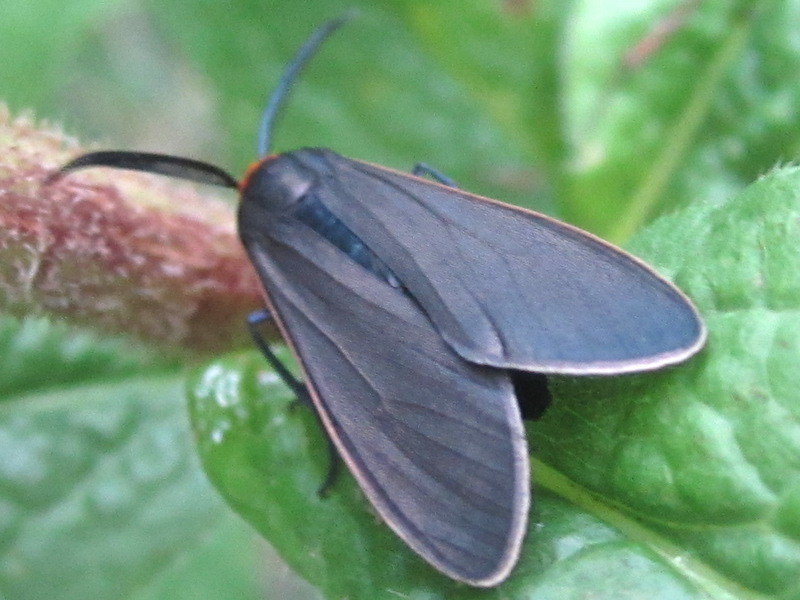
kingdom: Animalia
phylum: Arthropoda
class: Insecta
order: Lepidoptera
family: Erebidae
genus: Cisseps
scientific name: Cisseps fulvicollis
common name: Yellow-collared scape moth
